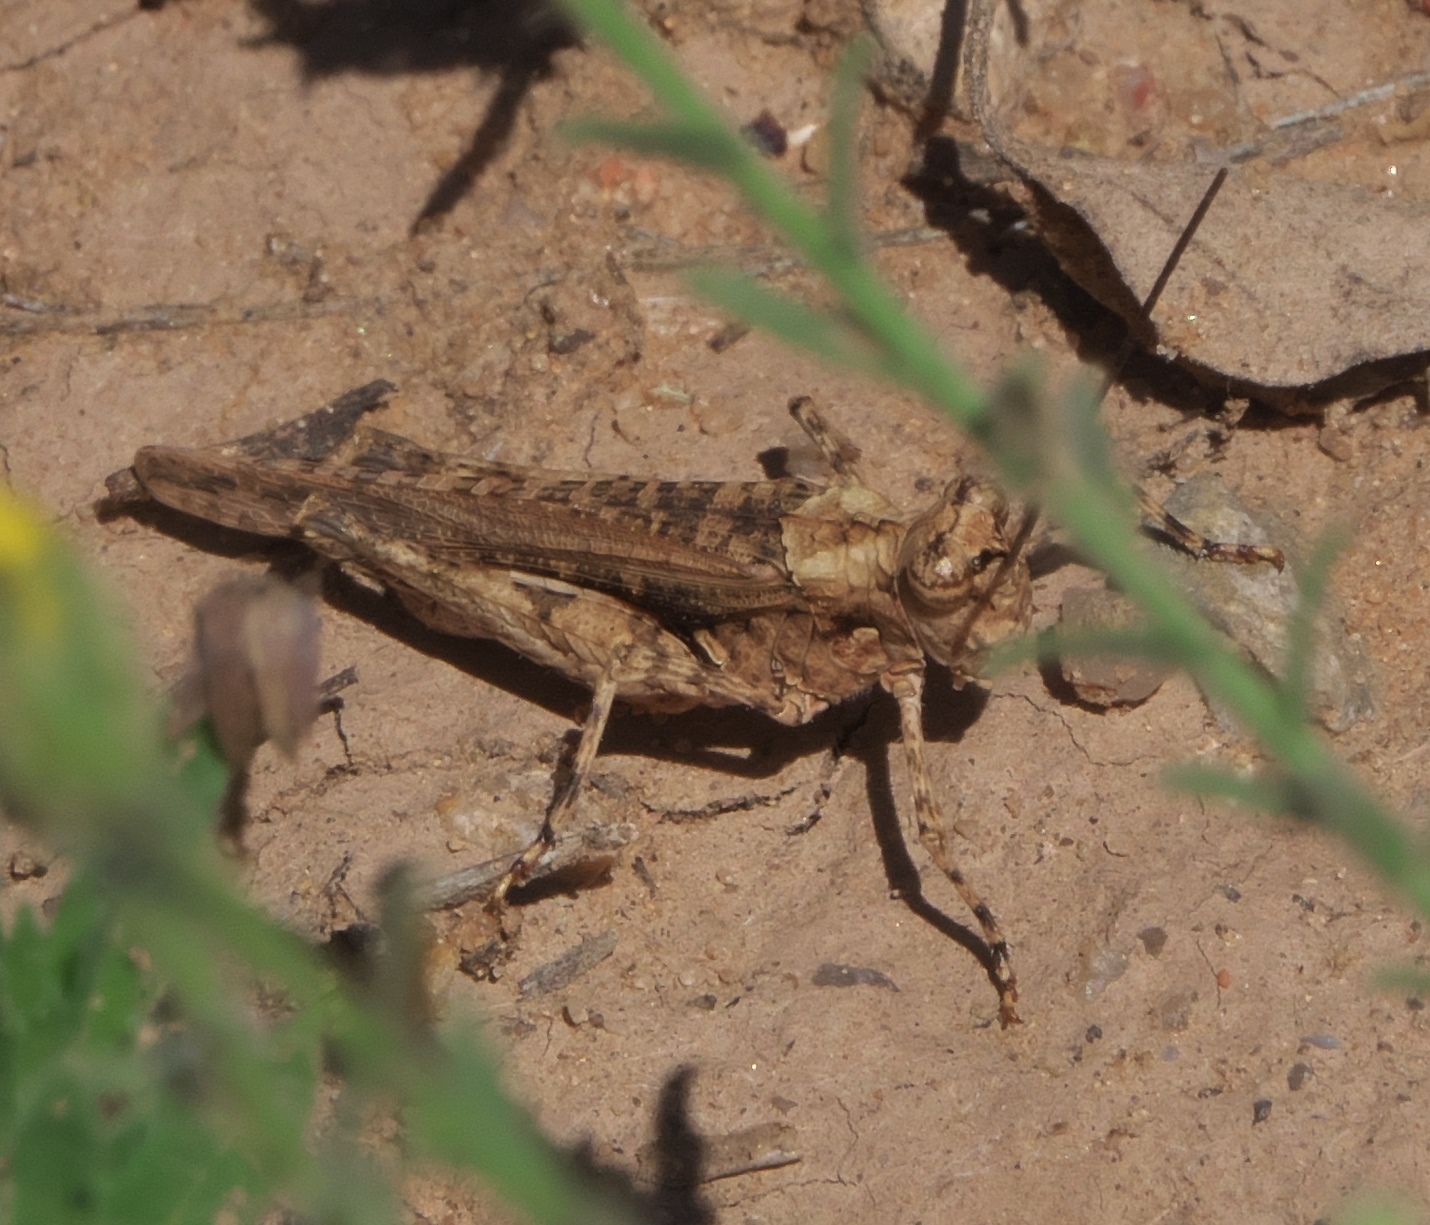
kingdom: Animalia
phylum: Arthropoda
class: Insecta
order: Orthoptera
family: Acrididae
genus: Derotmema
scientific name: Derotmema haydenii
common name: Hayden's grasshopper
